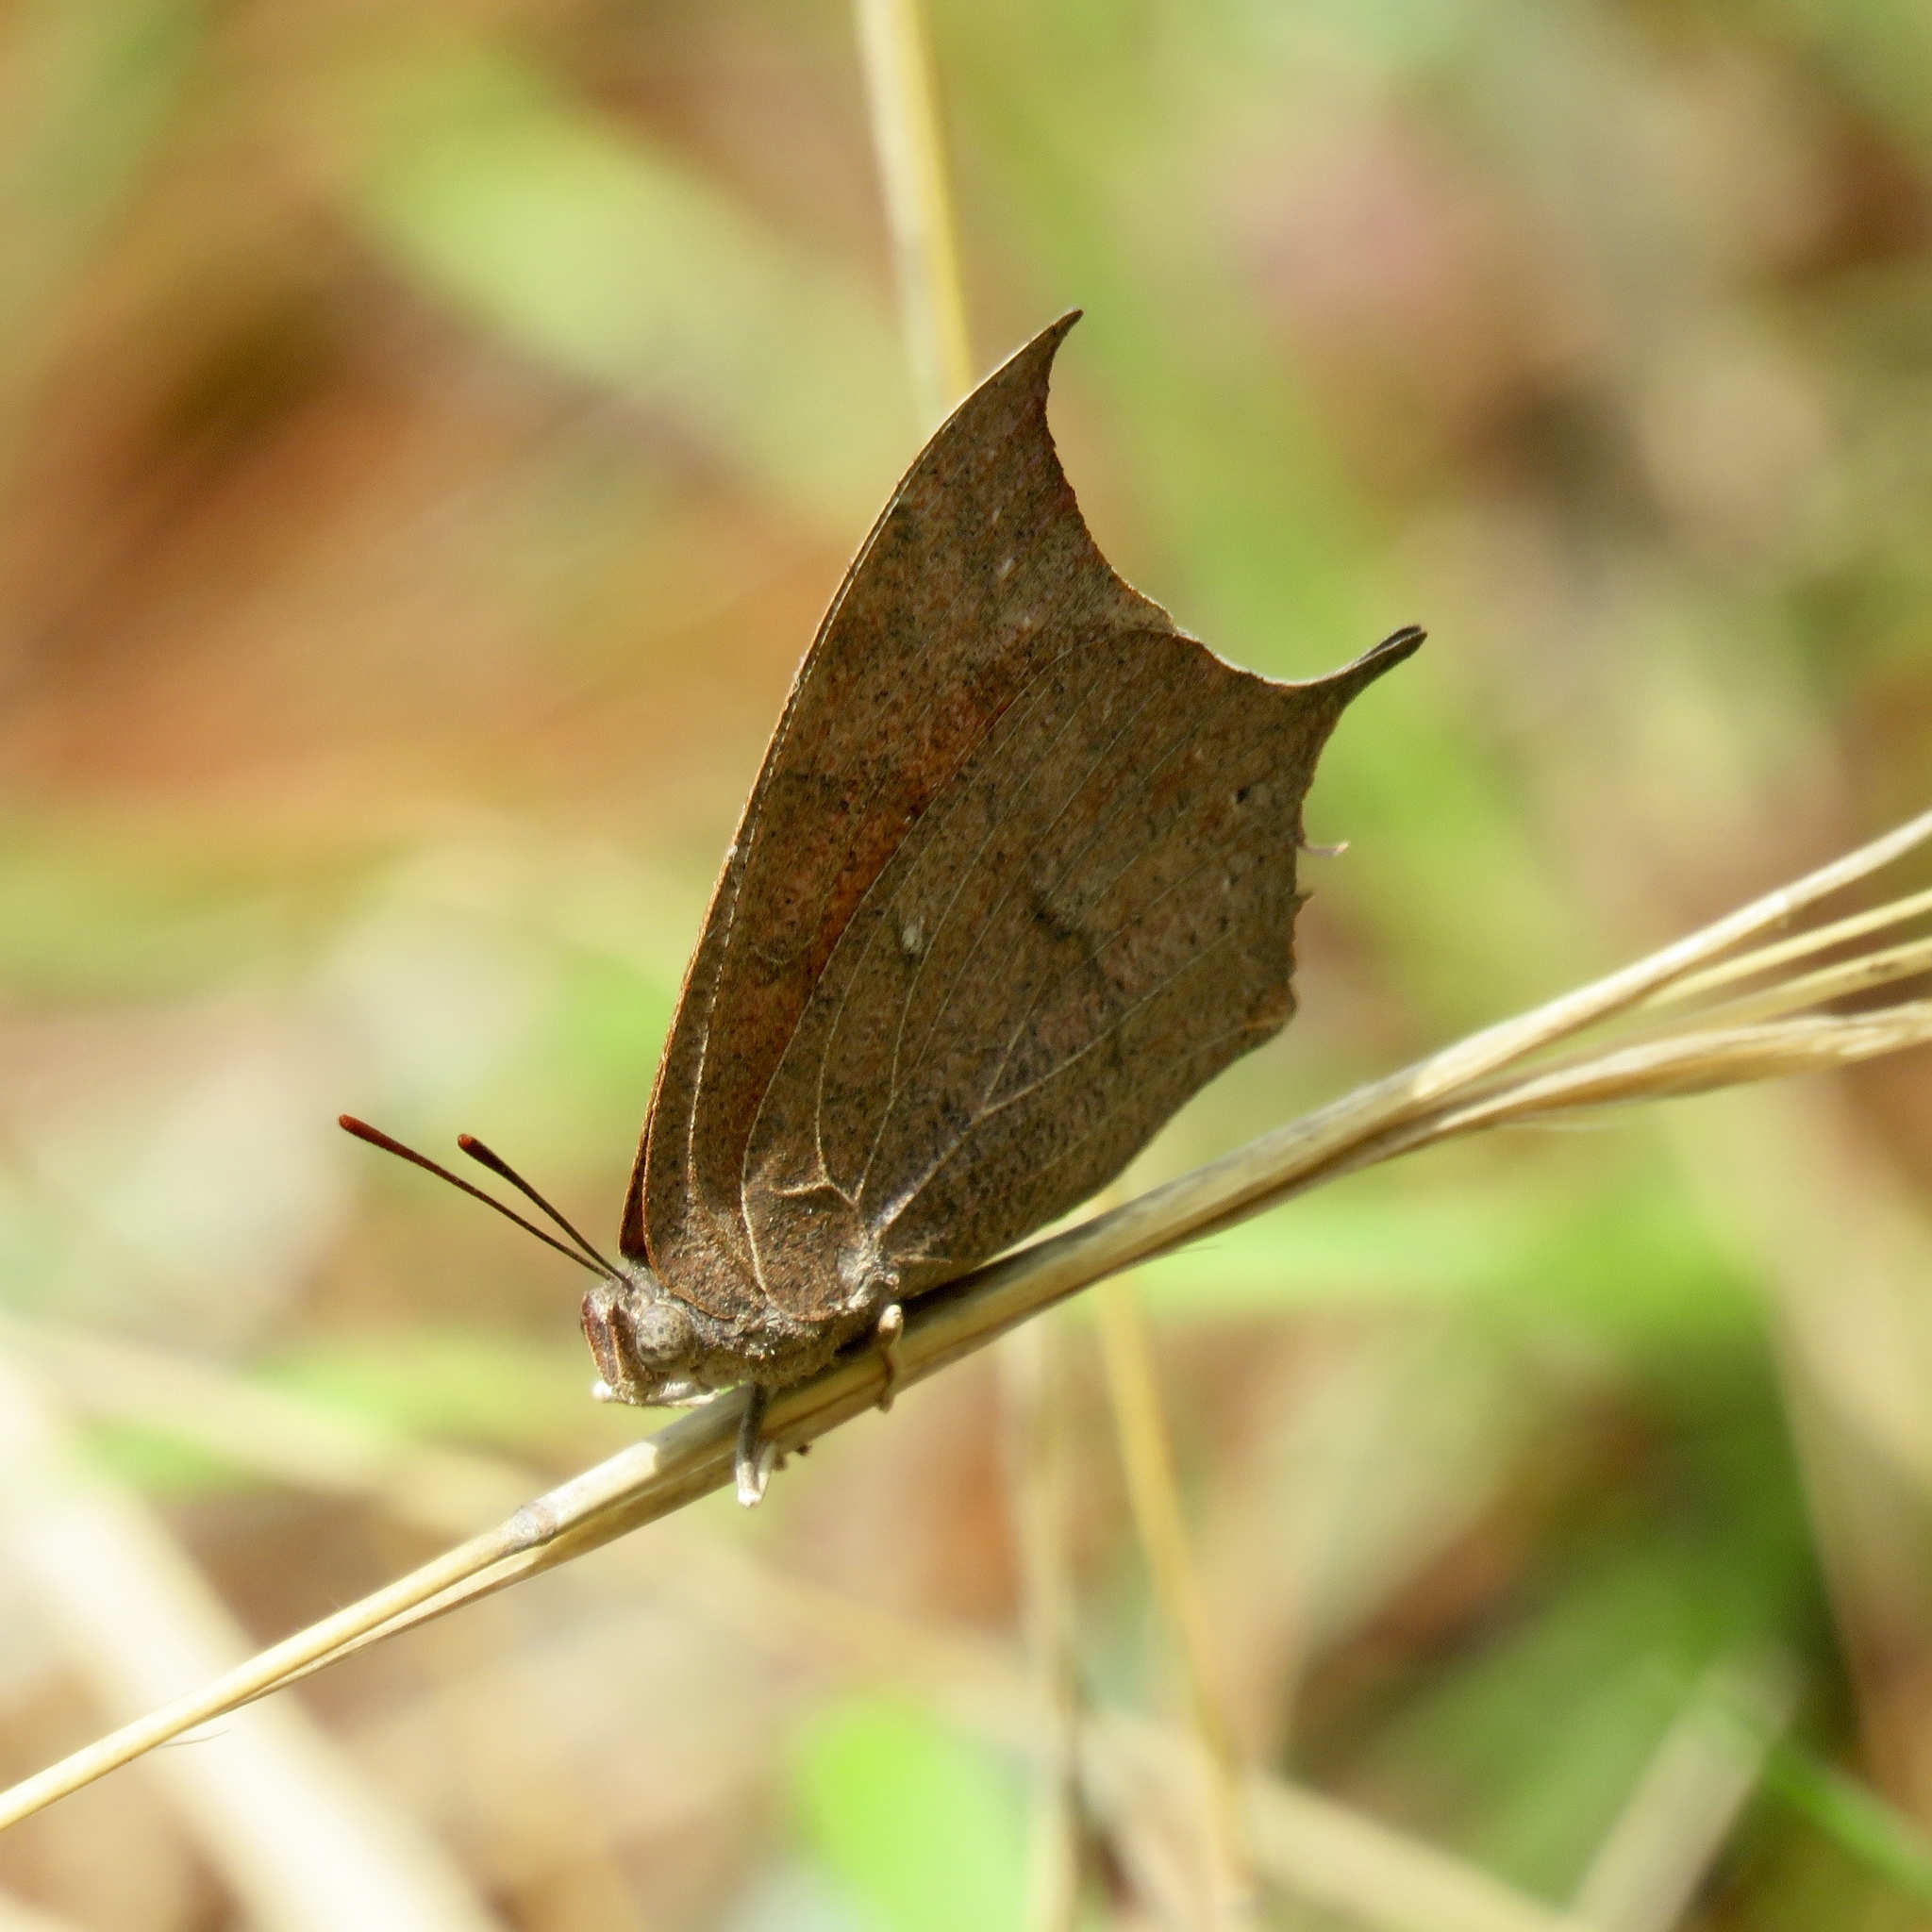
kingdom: Animalia
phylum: Arthropoda
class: Insecta
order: Lepidoptera
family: Nymphalidae
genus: Anaea
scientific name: Anaea andria
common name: Goatweed leafwing
